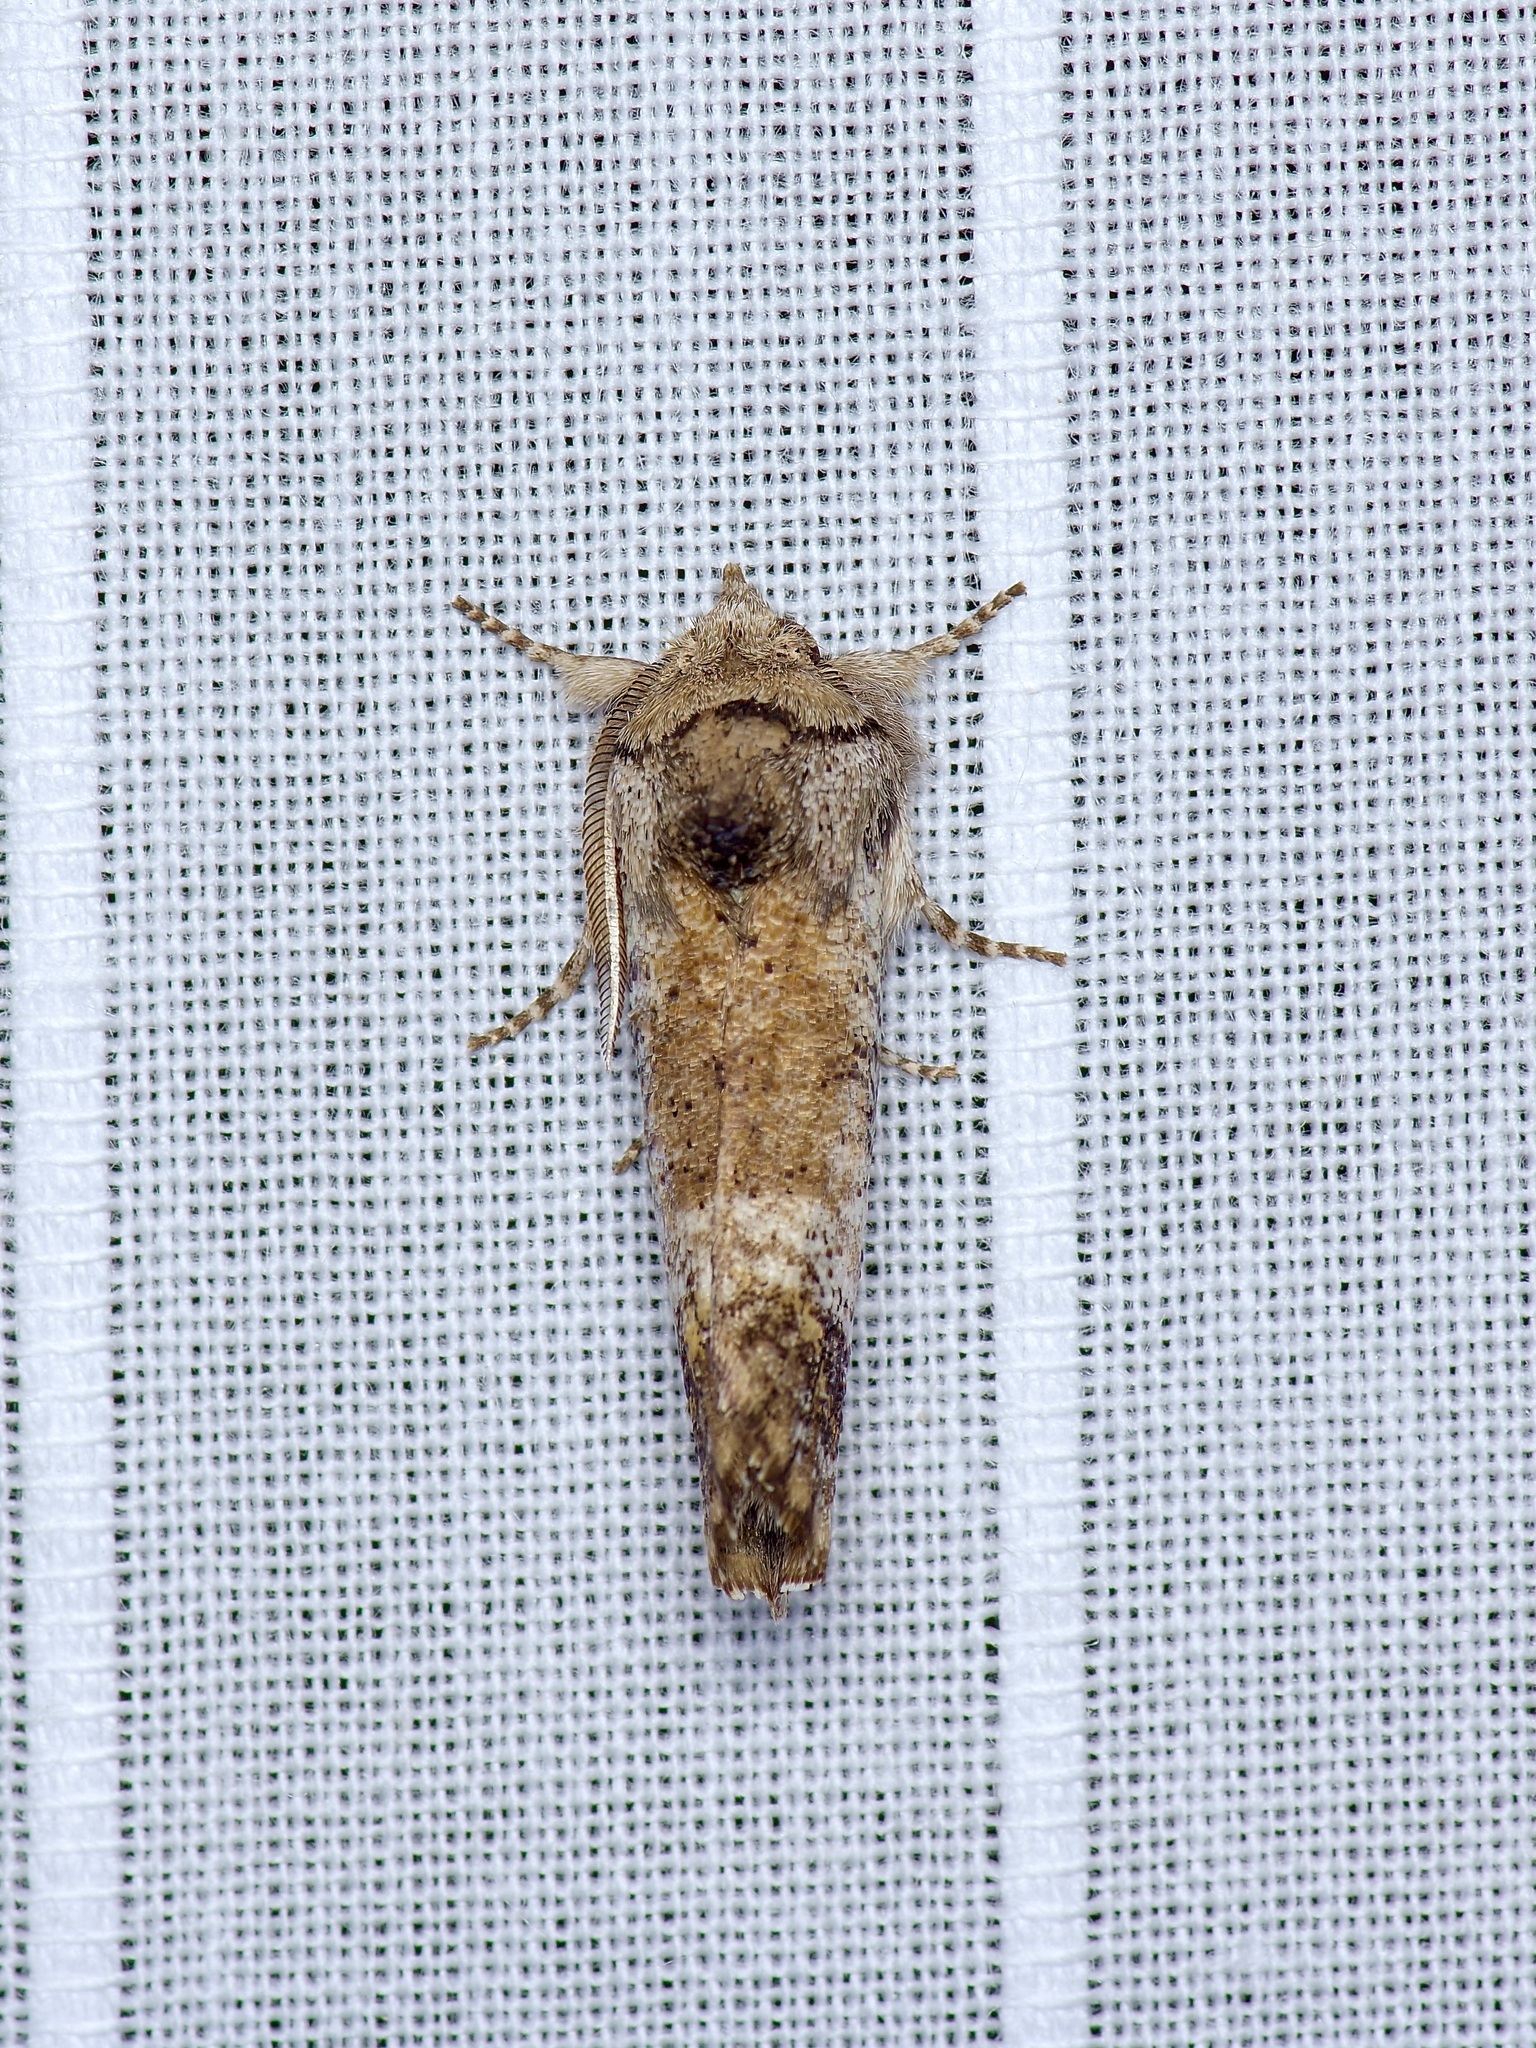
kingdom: Animalia
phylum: Arthropoda
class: Insecta
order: Lepidoptera
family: Erebidae
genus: Aon
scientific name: Aon noctuiformis
